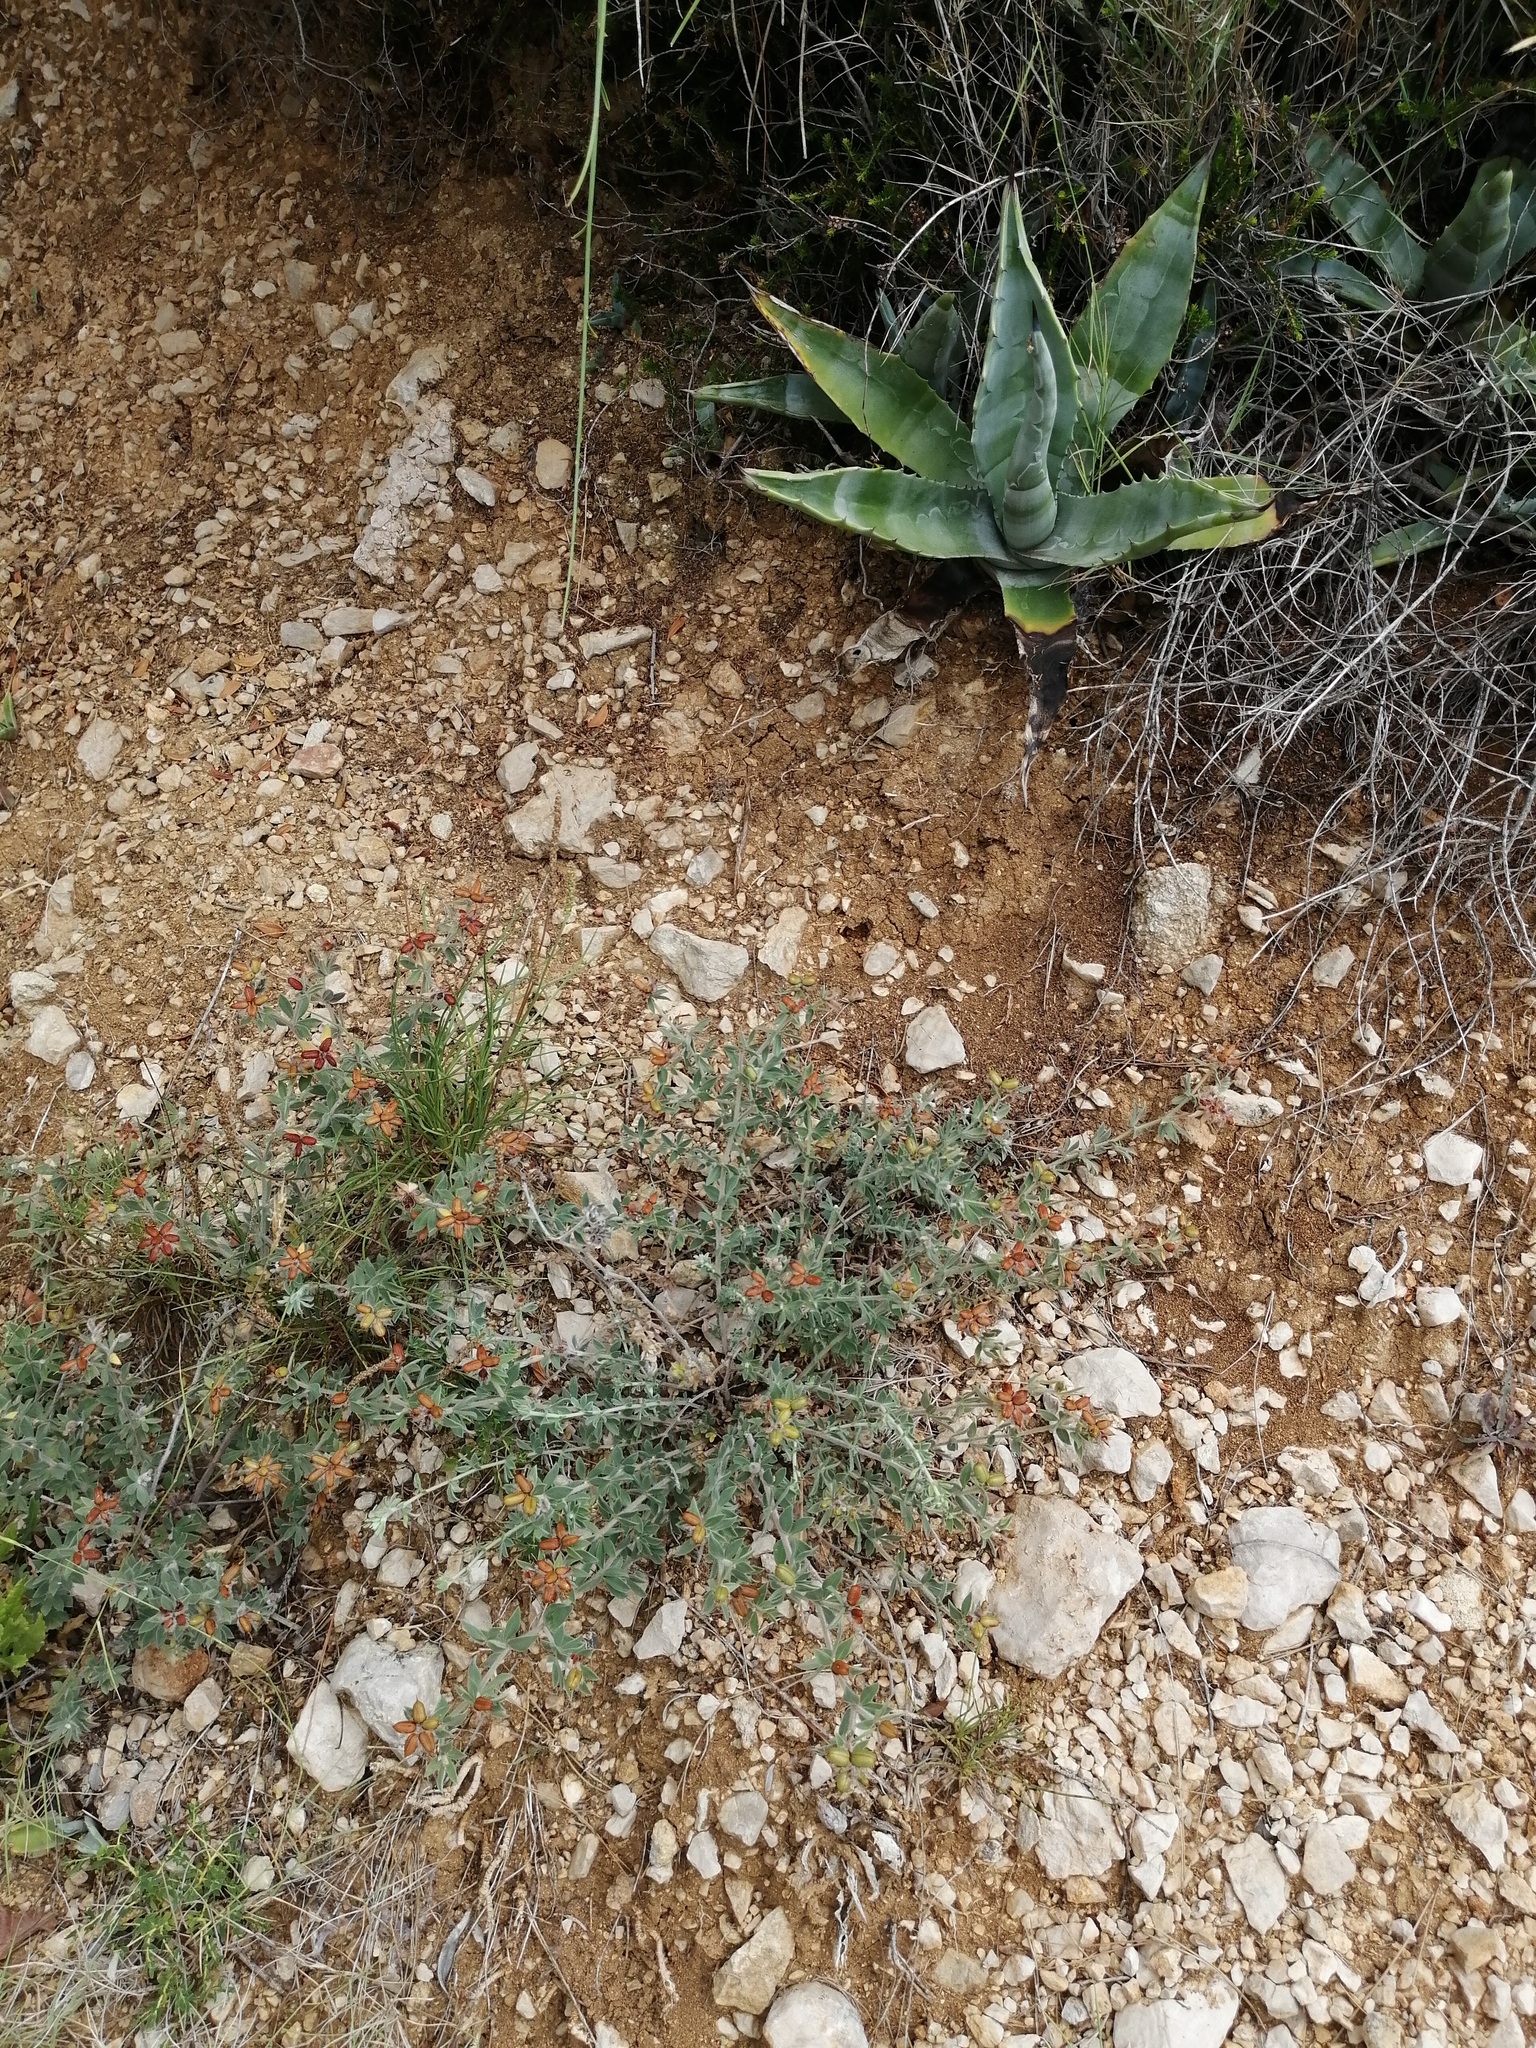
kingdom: Plantae
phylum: Tracheophyta
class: Liliopsida
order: Asparagales
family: Asparagaceae
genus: Agave
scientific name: Agave americana
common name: Centuryplant
